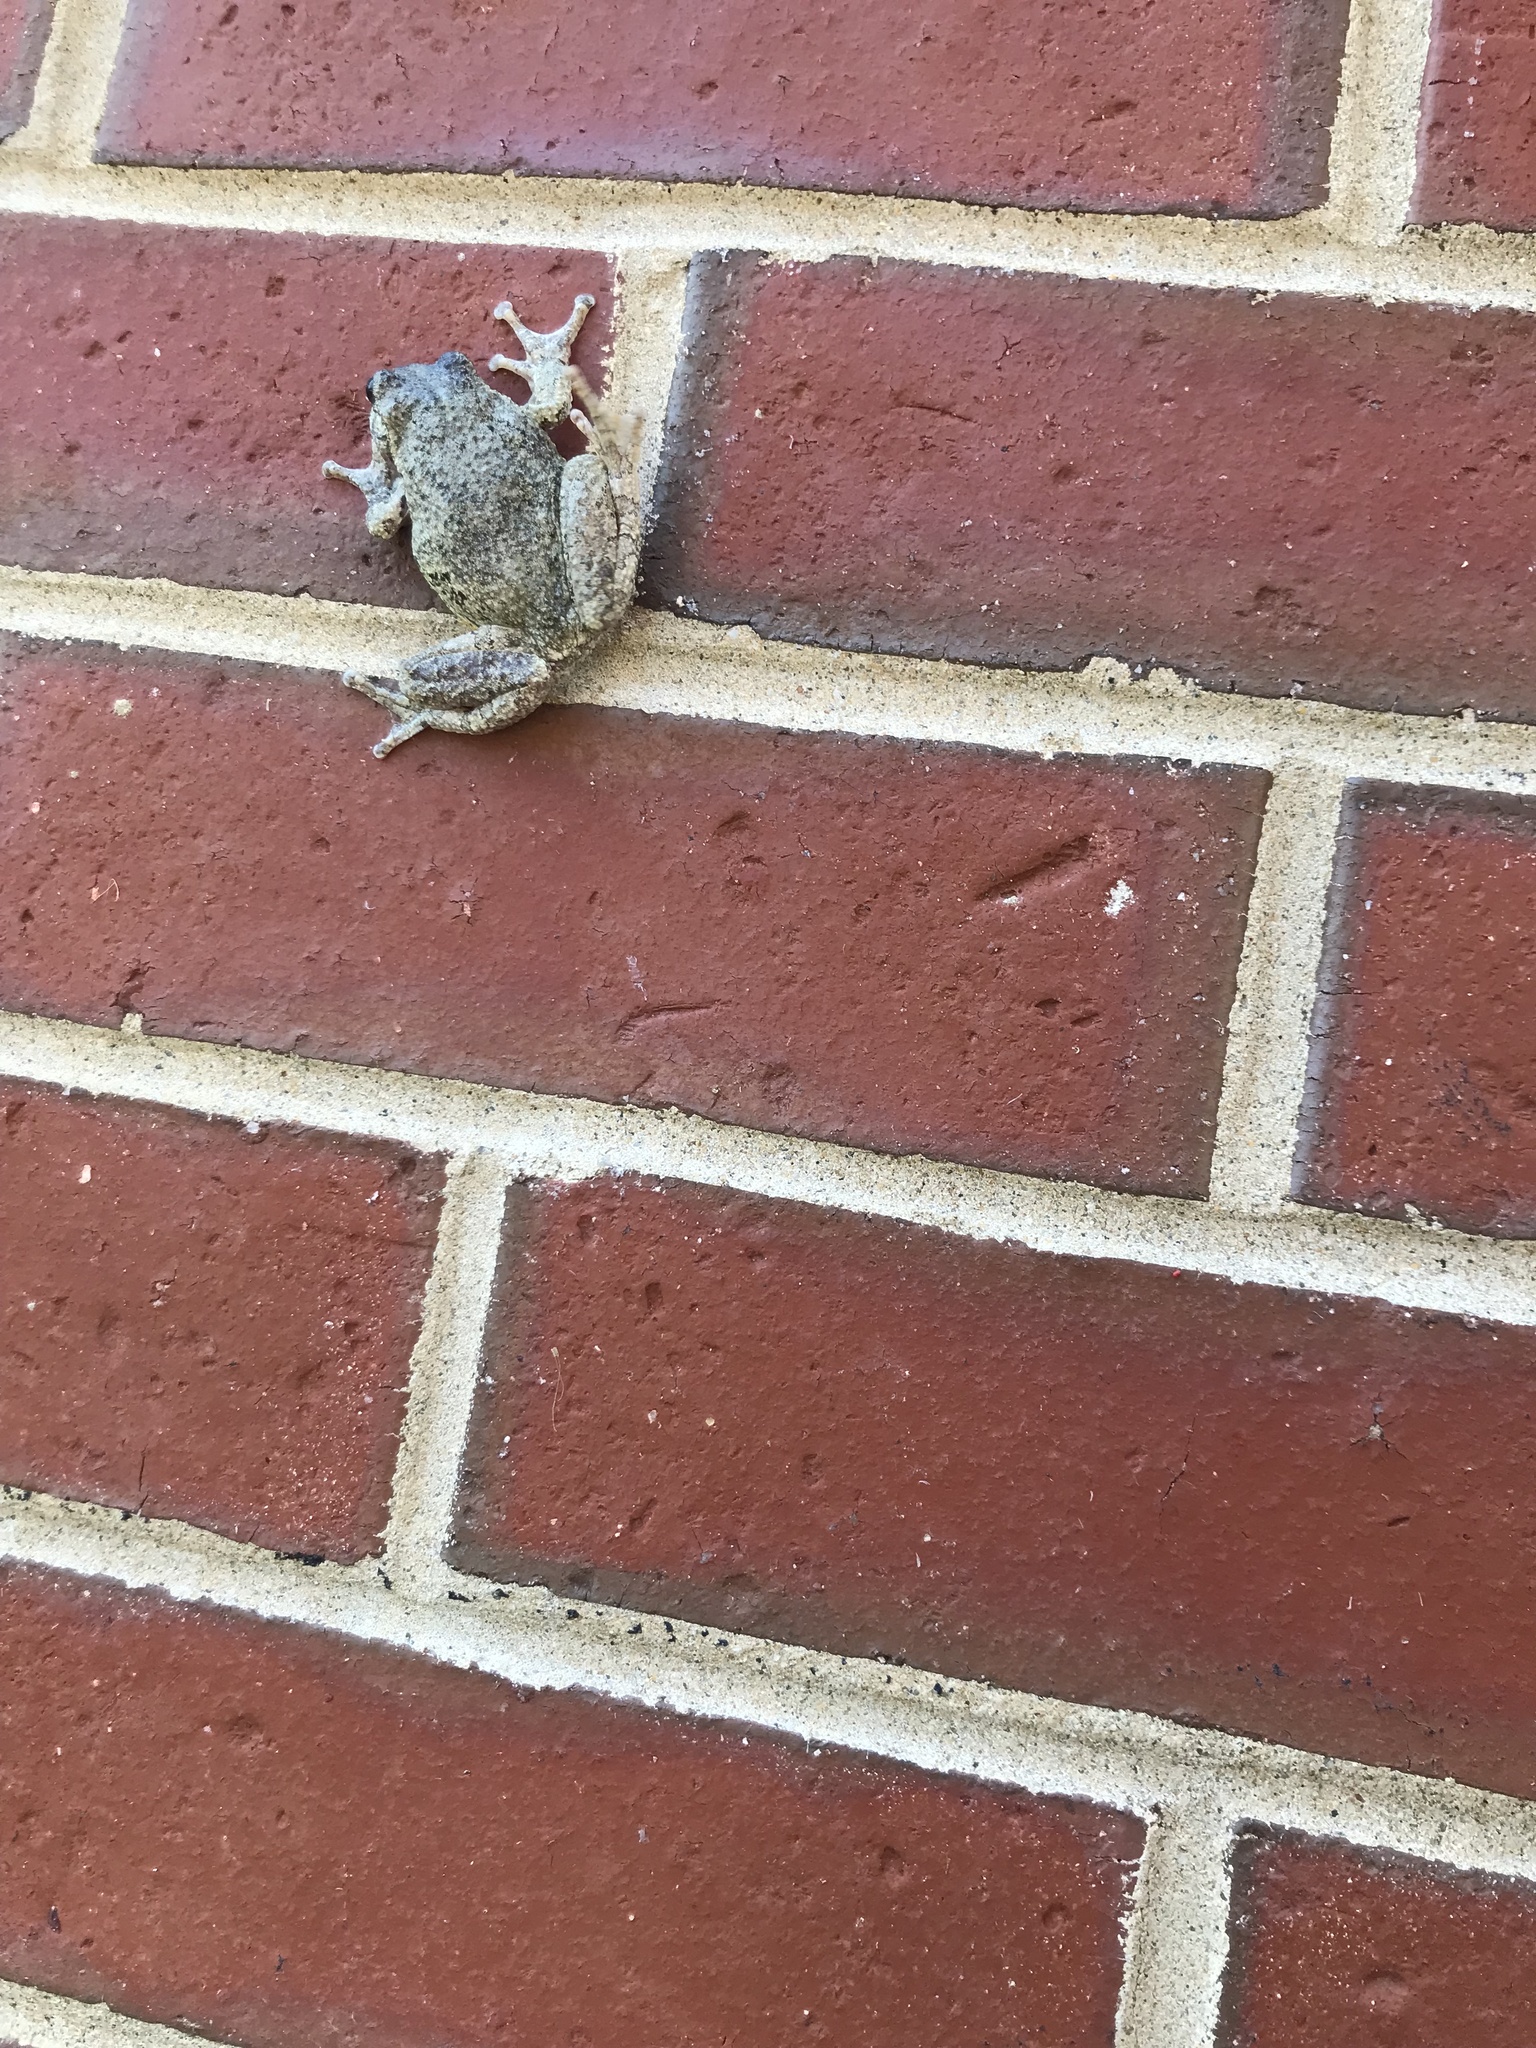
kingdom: Animalia
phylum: Chordata
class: Amphibia
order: Anura
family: Hylidae
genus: Dryophytes
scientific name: Dryophytes versicolor
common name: Gray treefrog
